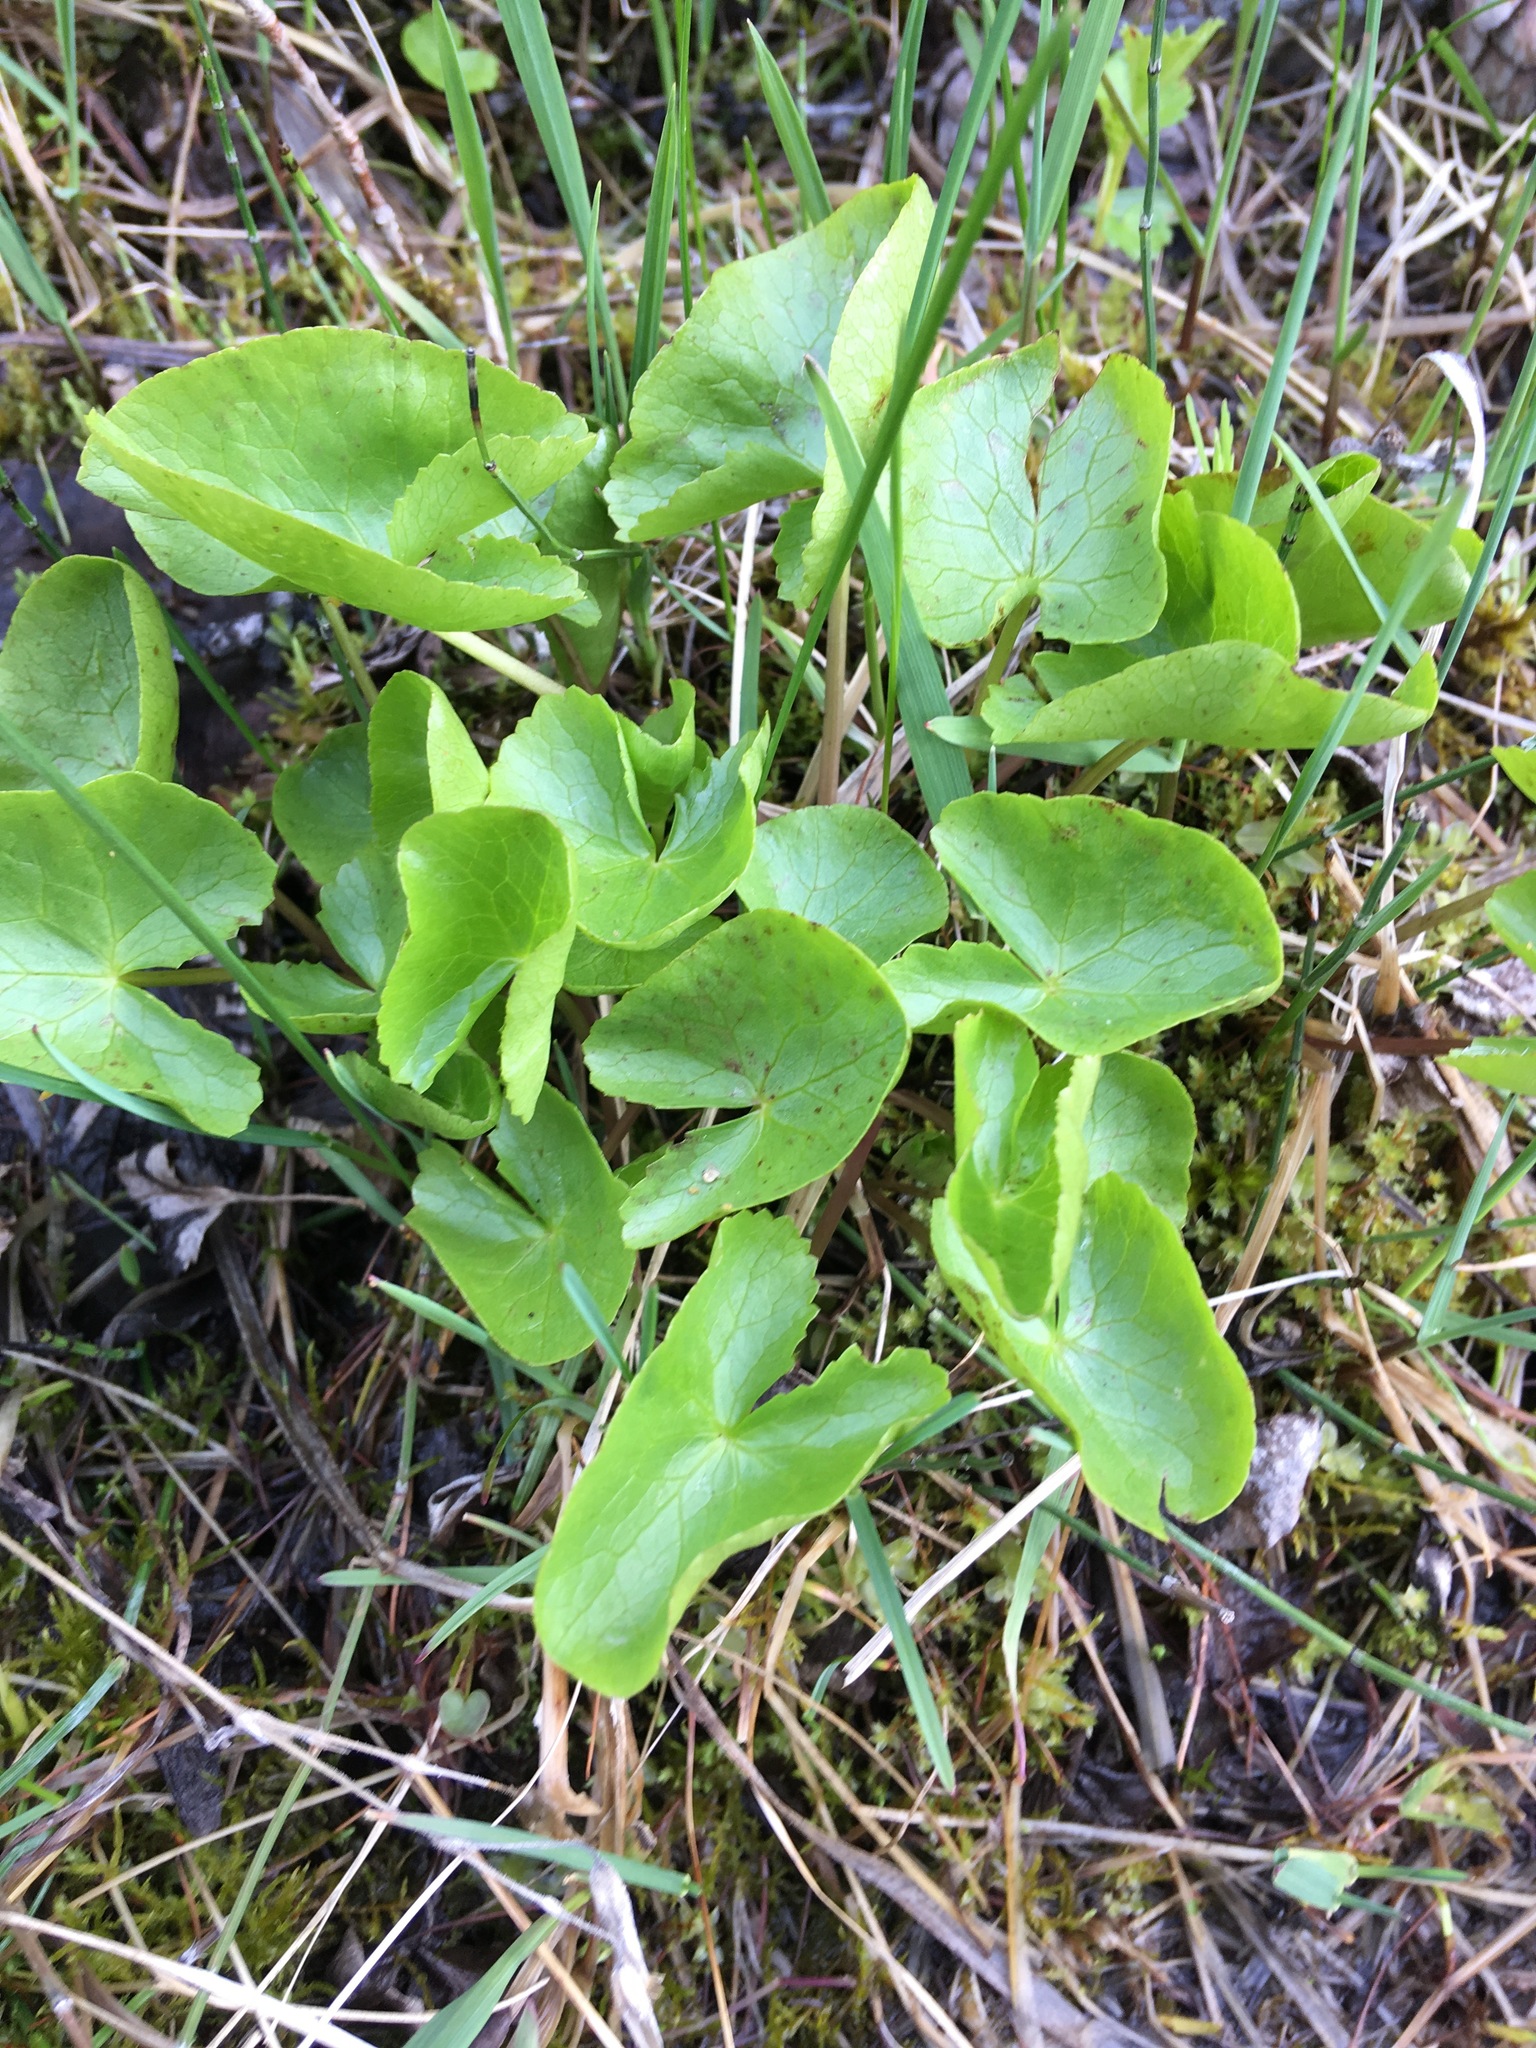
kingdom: Plantae
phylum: Tracheophyta
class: Magnoliopsida
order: Ranunculales
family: Ranunculaceae
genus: Caltha
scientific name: Caltha palustris
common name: Marsh marigold
